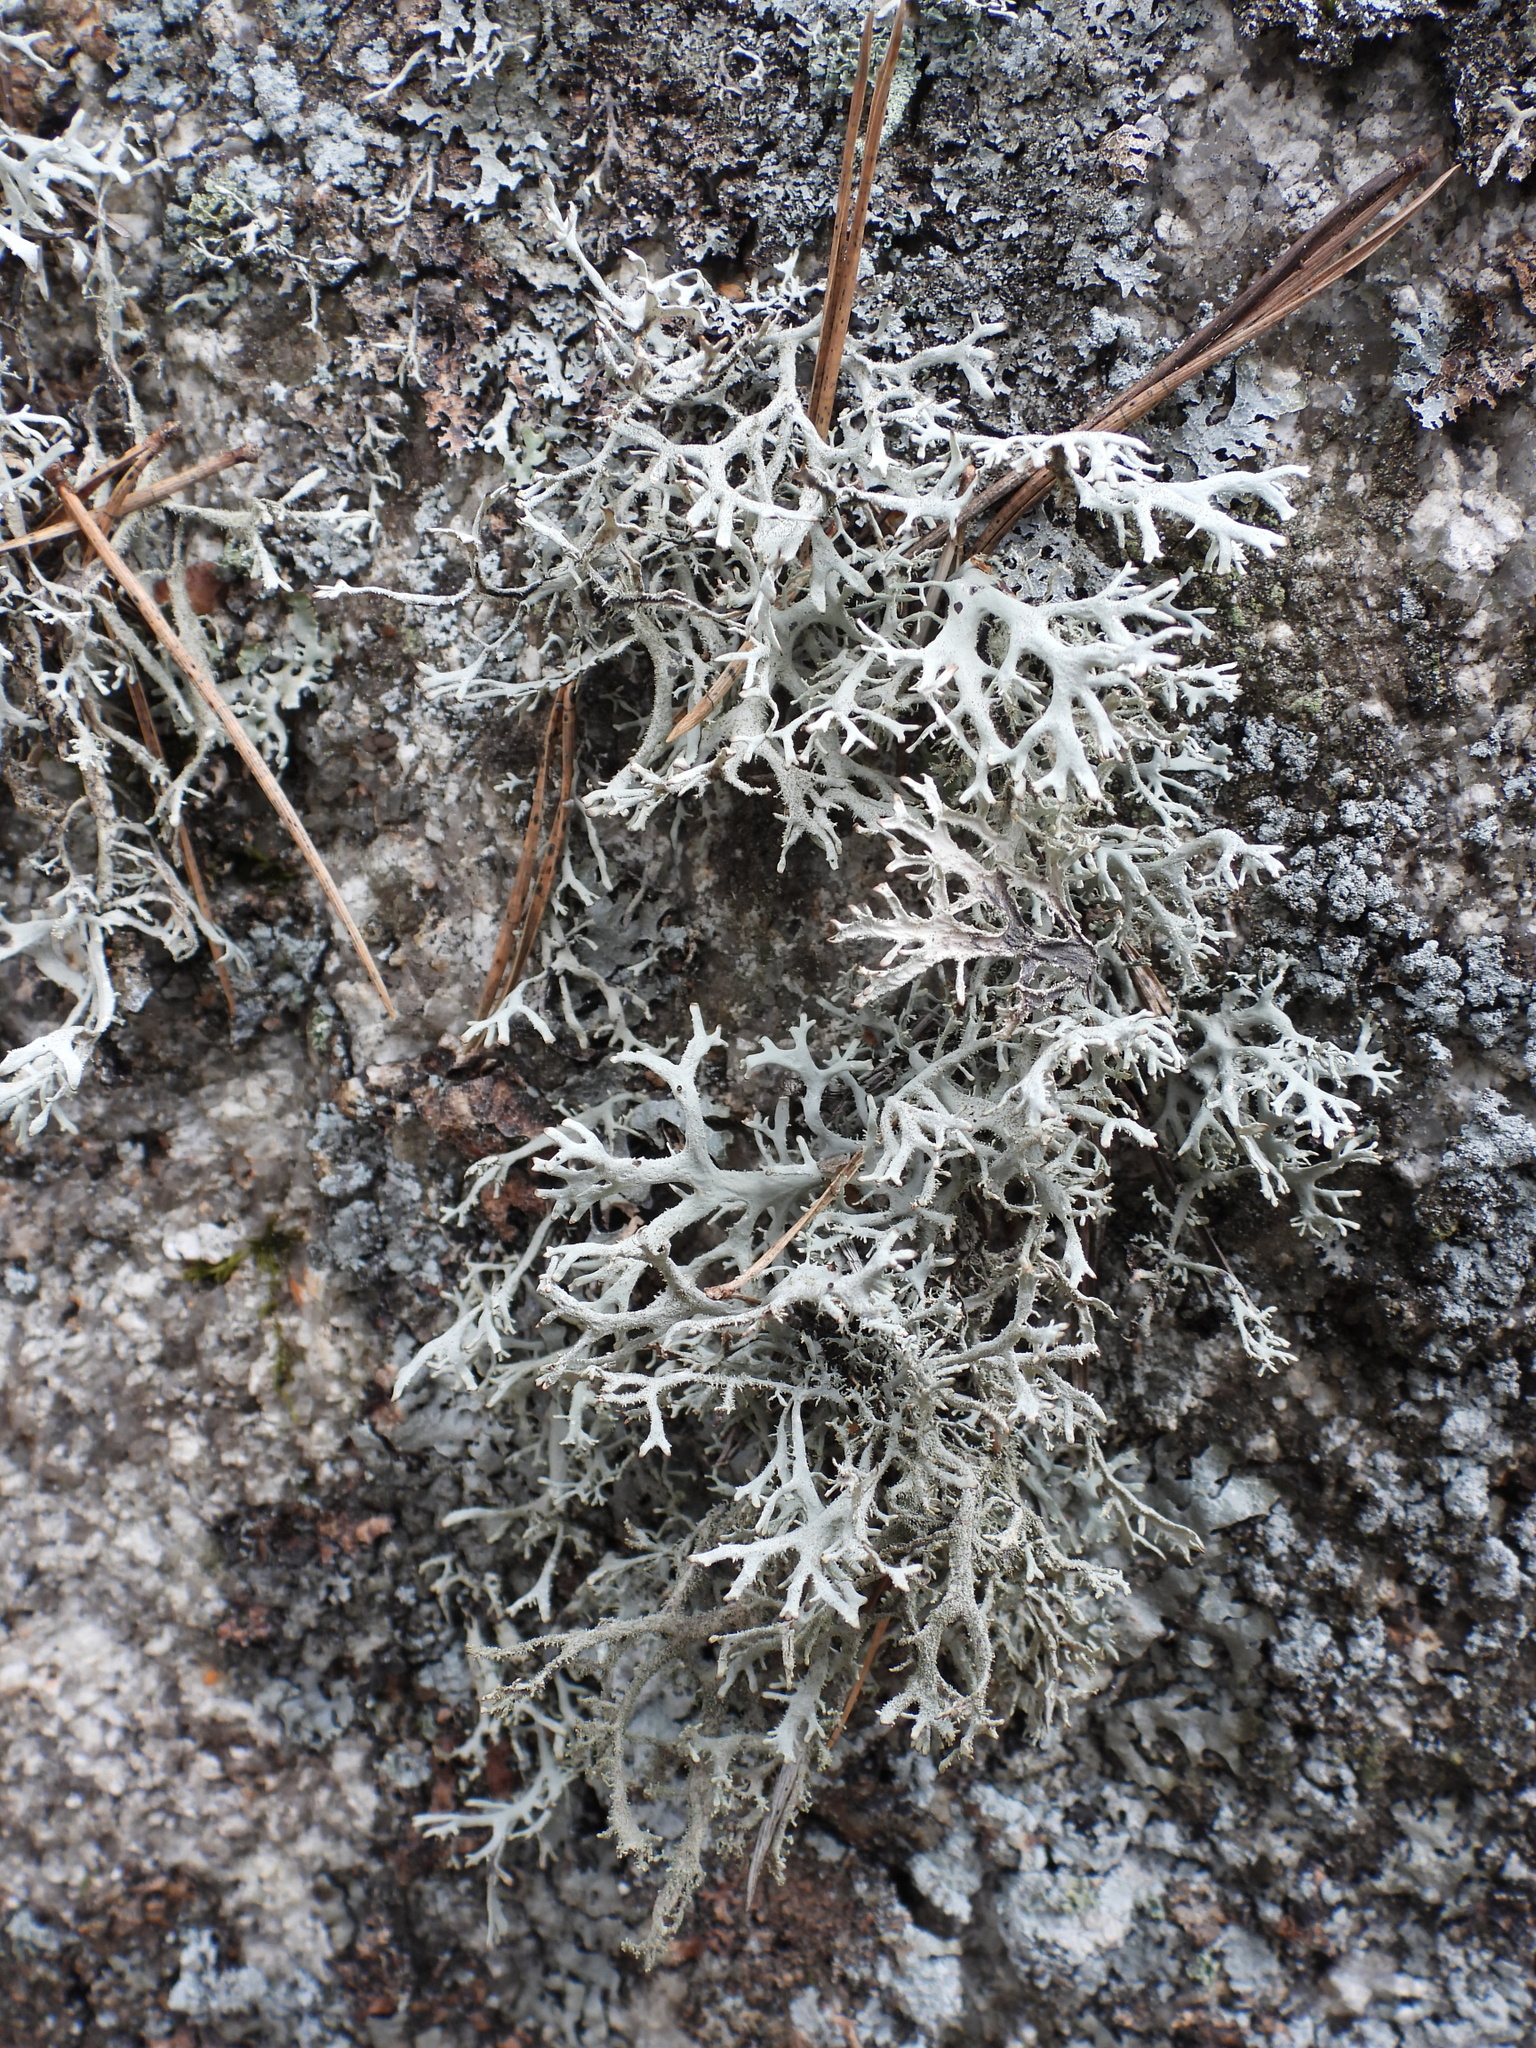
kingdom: Fungi
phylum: Ascomycota
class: Lecanoromycetes
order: Lecanorales
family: Parmeliaceae
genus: Pseudevernia
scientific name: Pseudevernia furfuracea
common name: Tree moss
